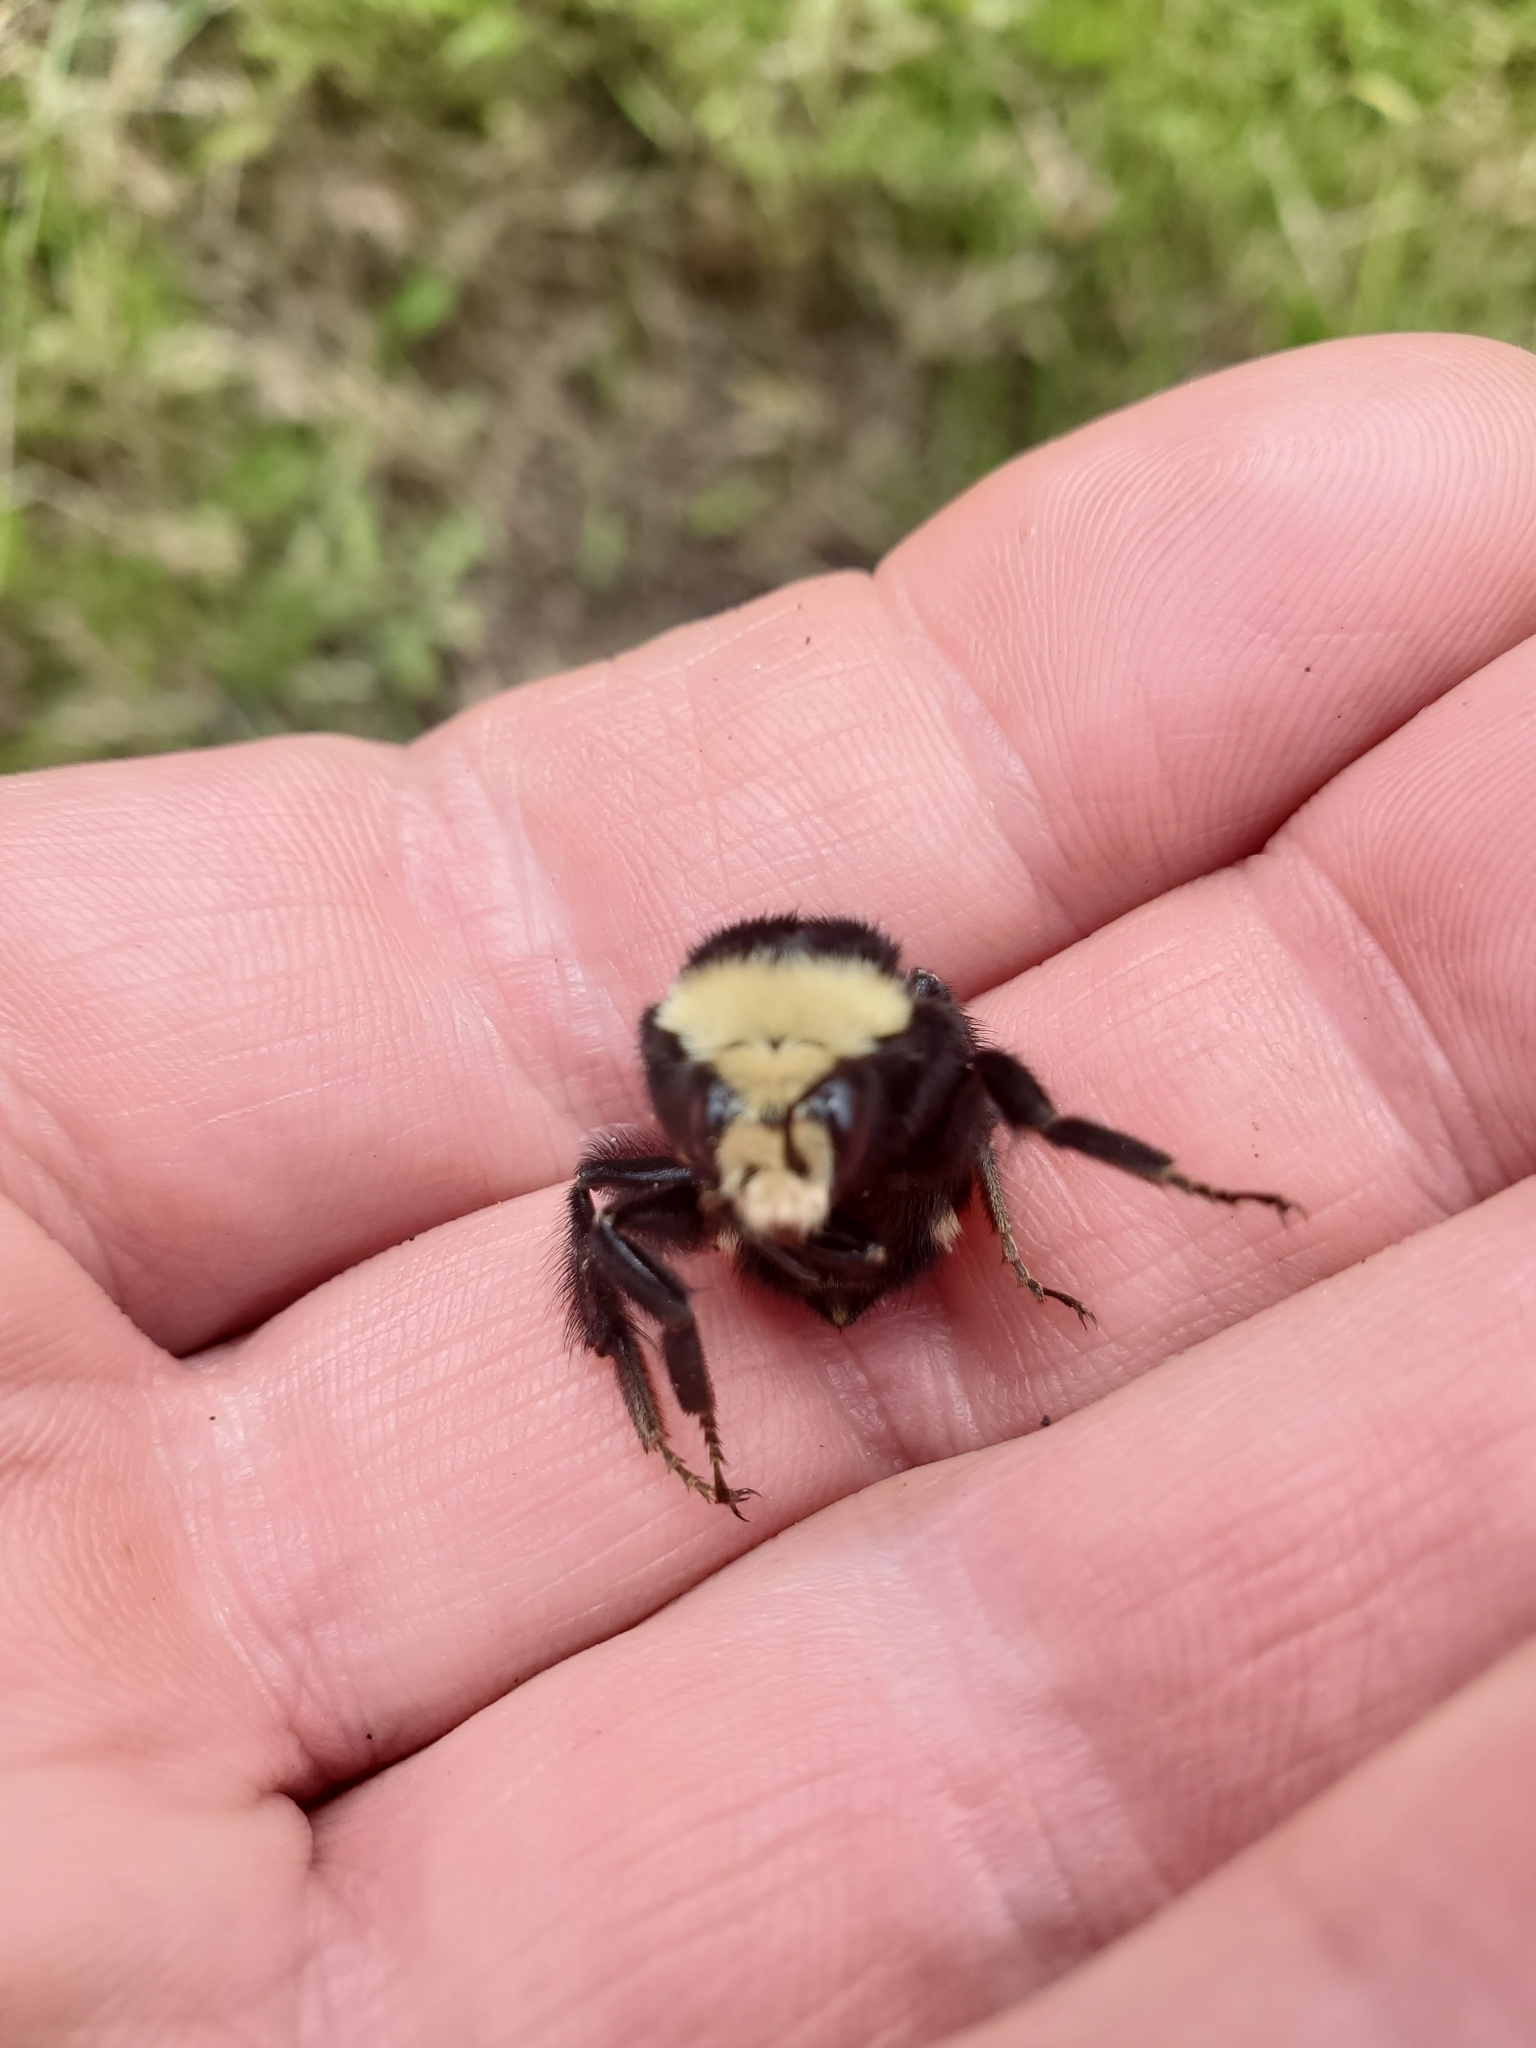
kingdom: Animalia
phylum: Arthropoda
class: Insecta
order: Hymenoptera
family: Apidae
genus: Bombus
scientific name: Bombus vosnesenskii
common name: Vosnesensky bumble bee
